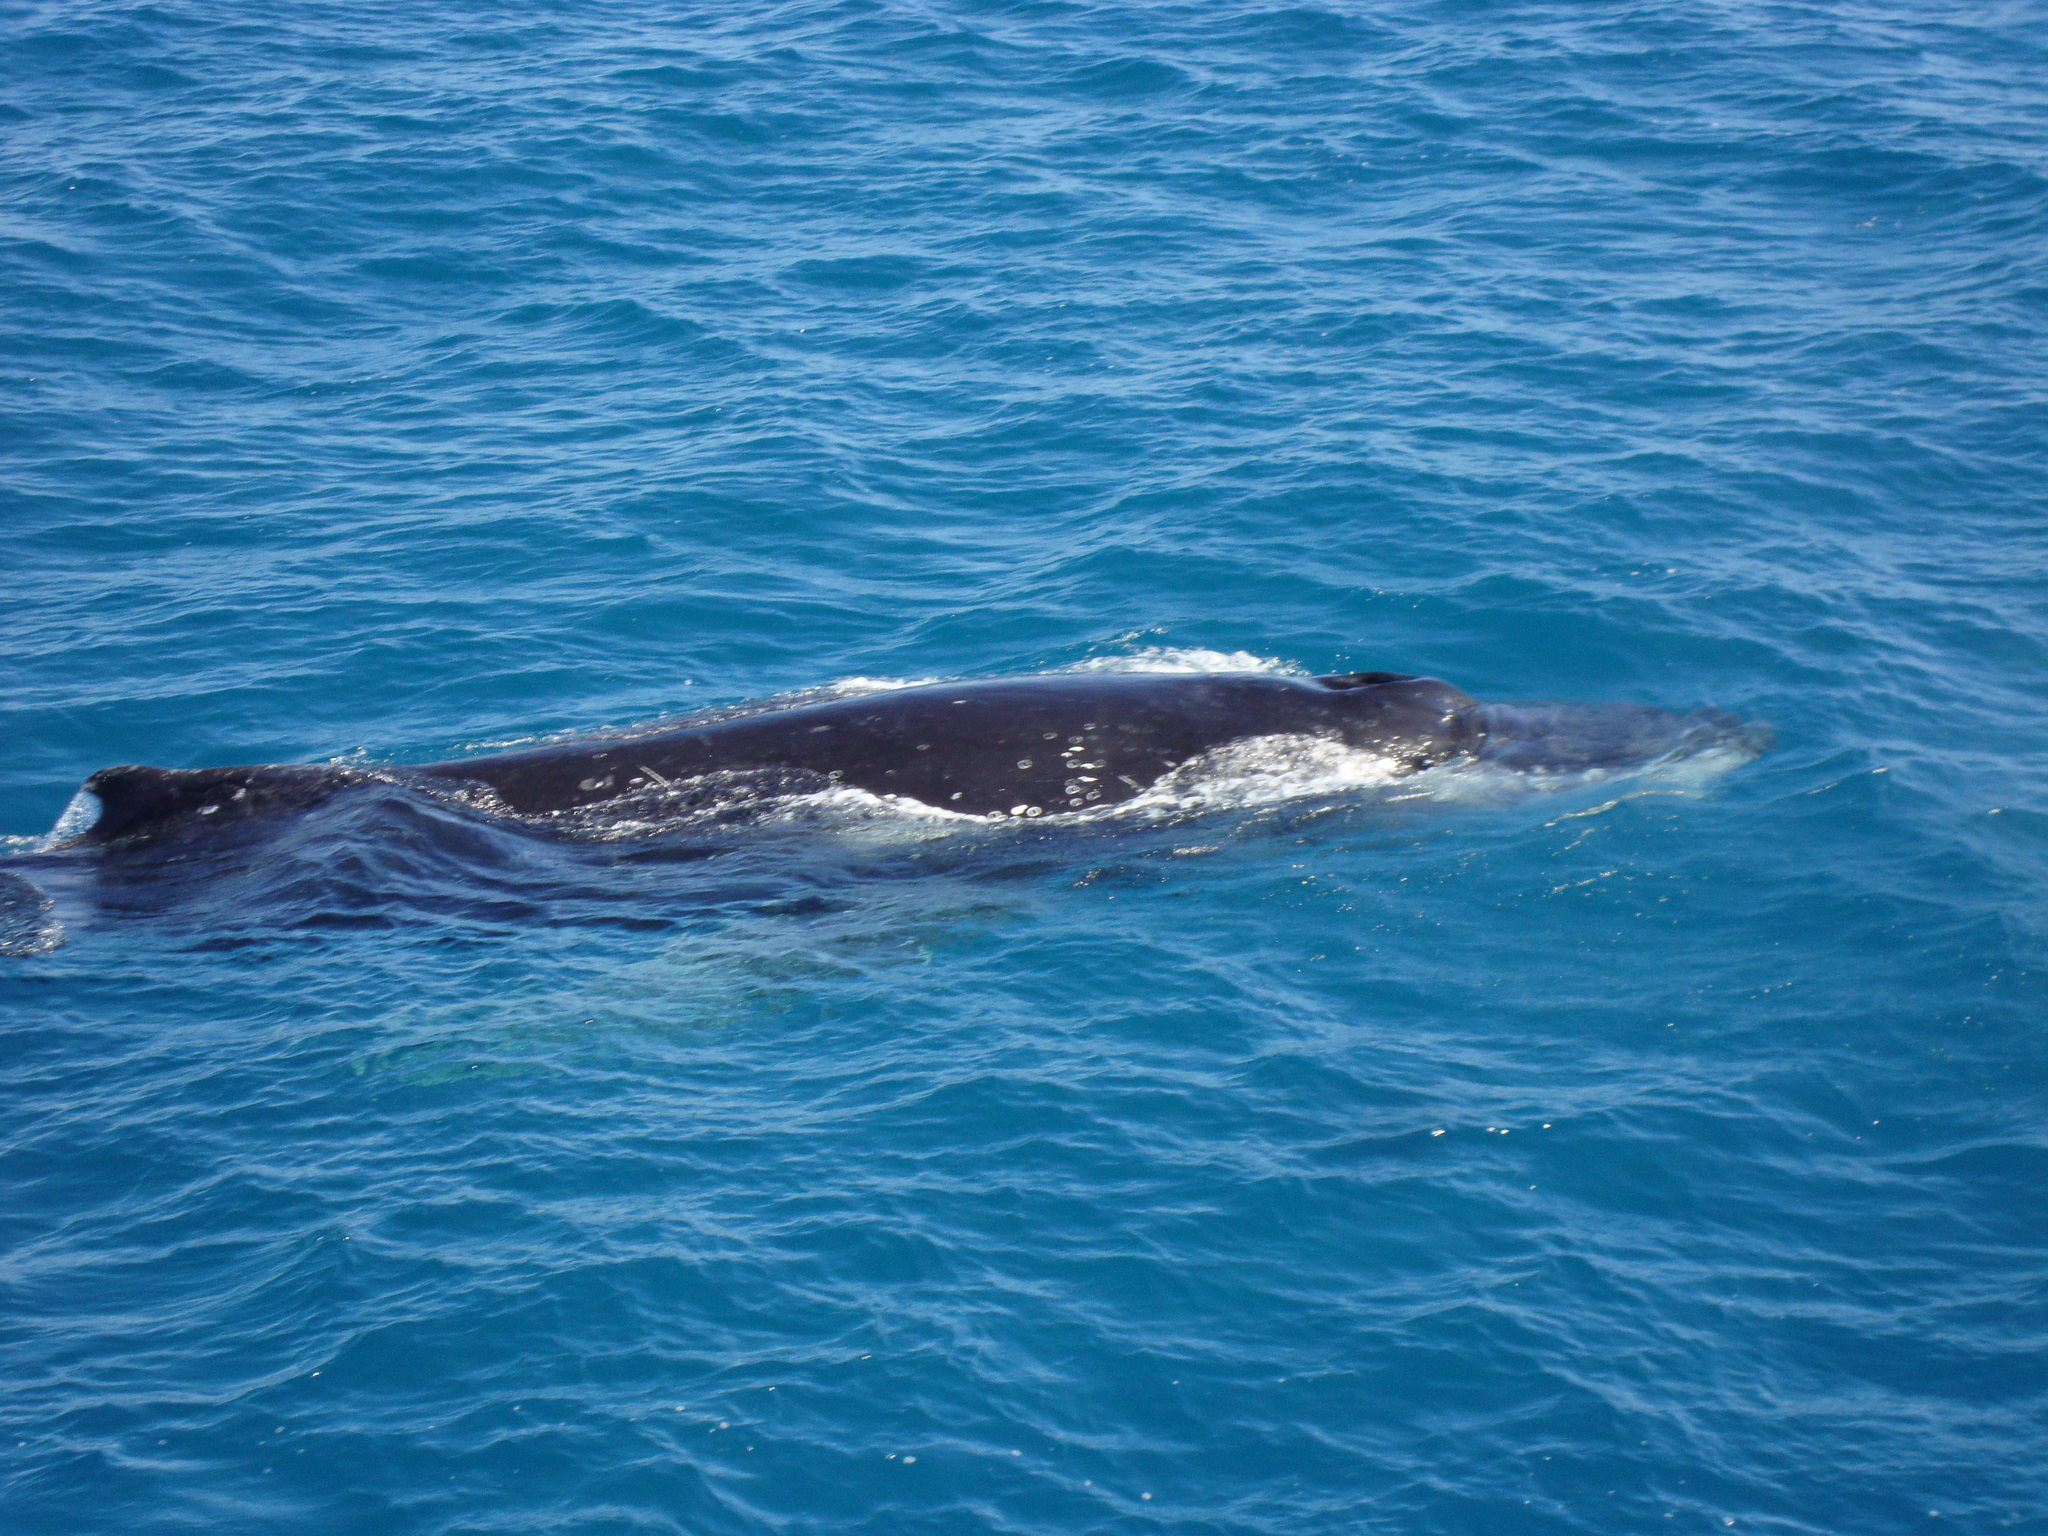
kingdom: Animalia
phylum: Chordata
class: Mammalia
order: Cetacea
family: Balaenopteridae
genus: Megaptera
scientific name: Megaptera novaeangliae
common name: Humpback whale
